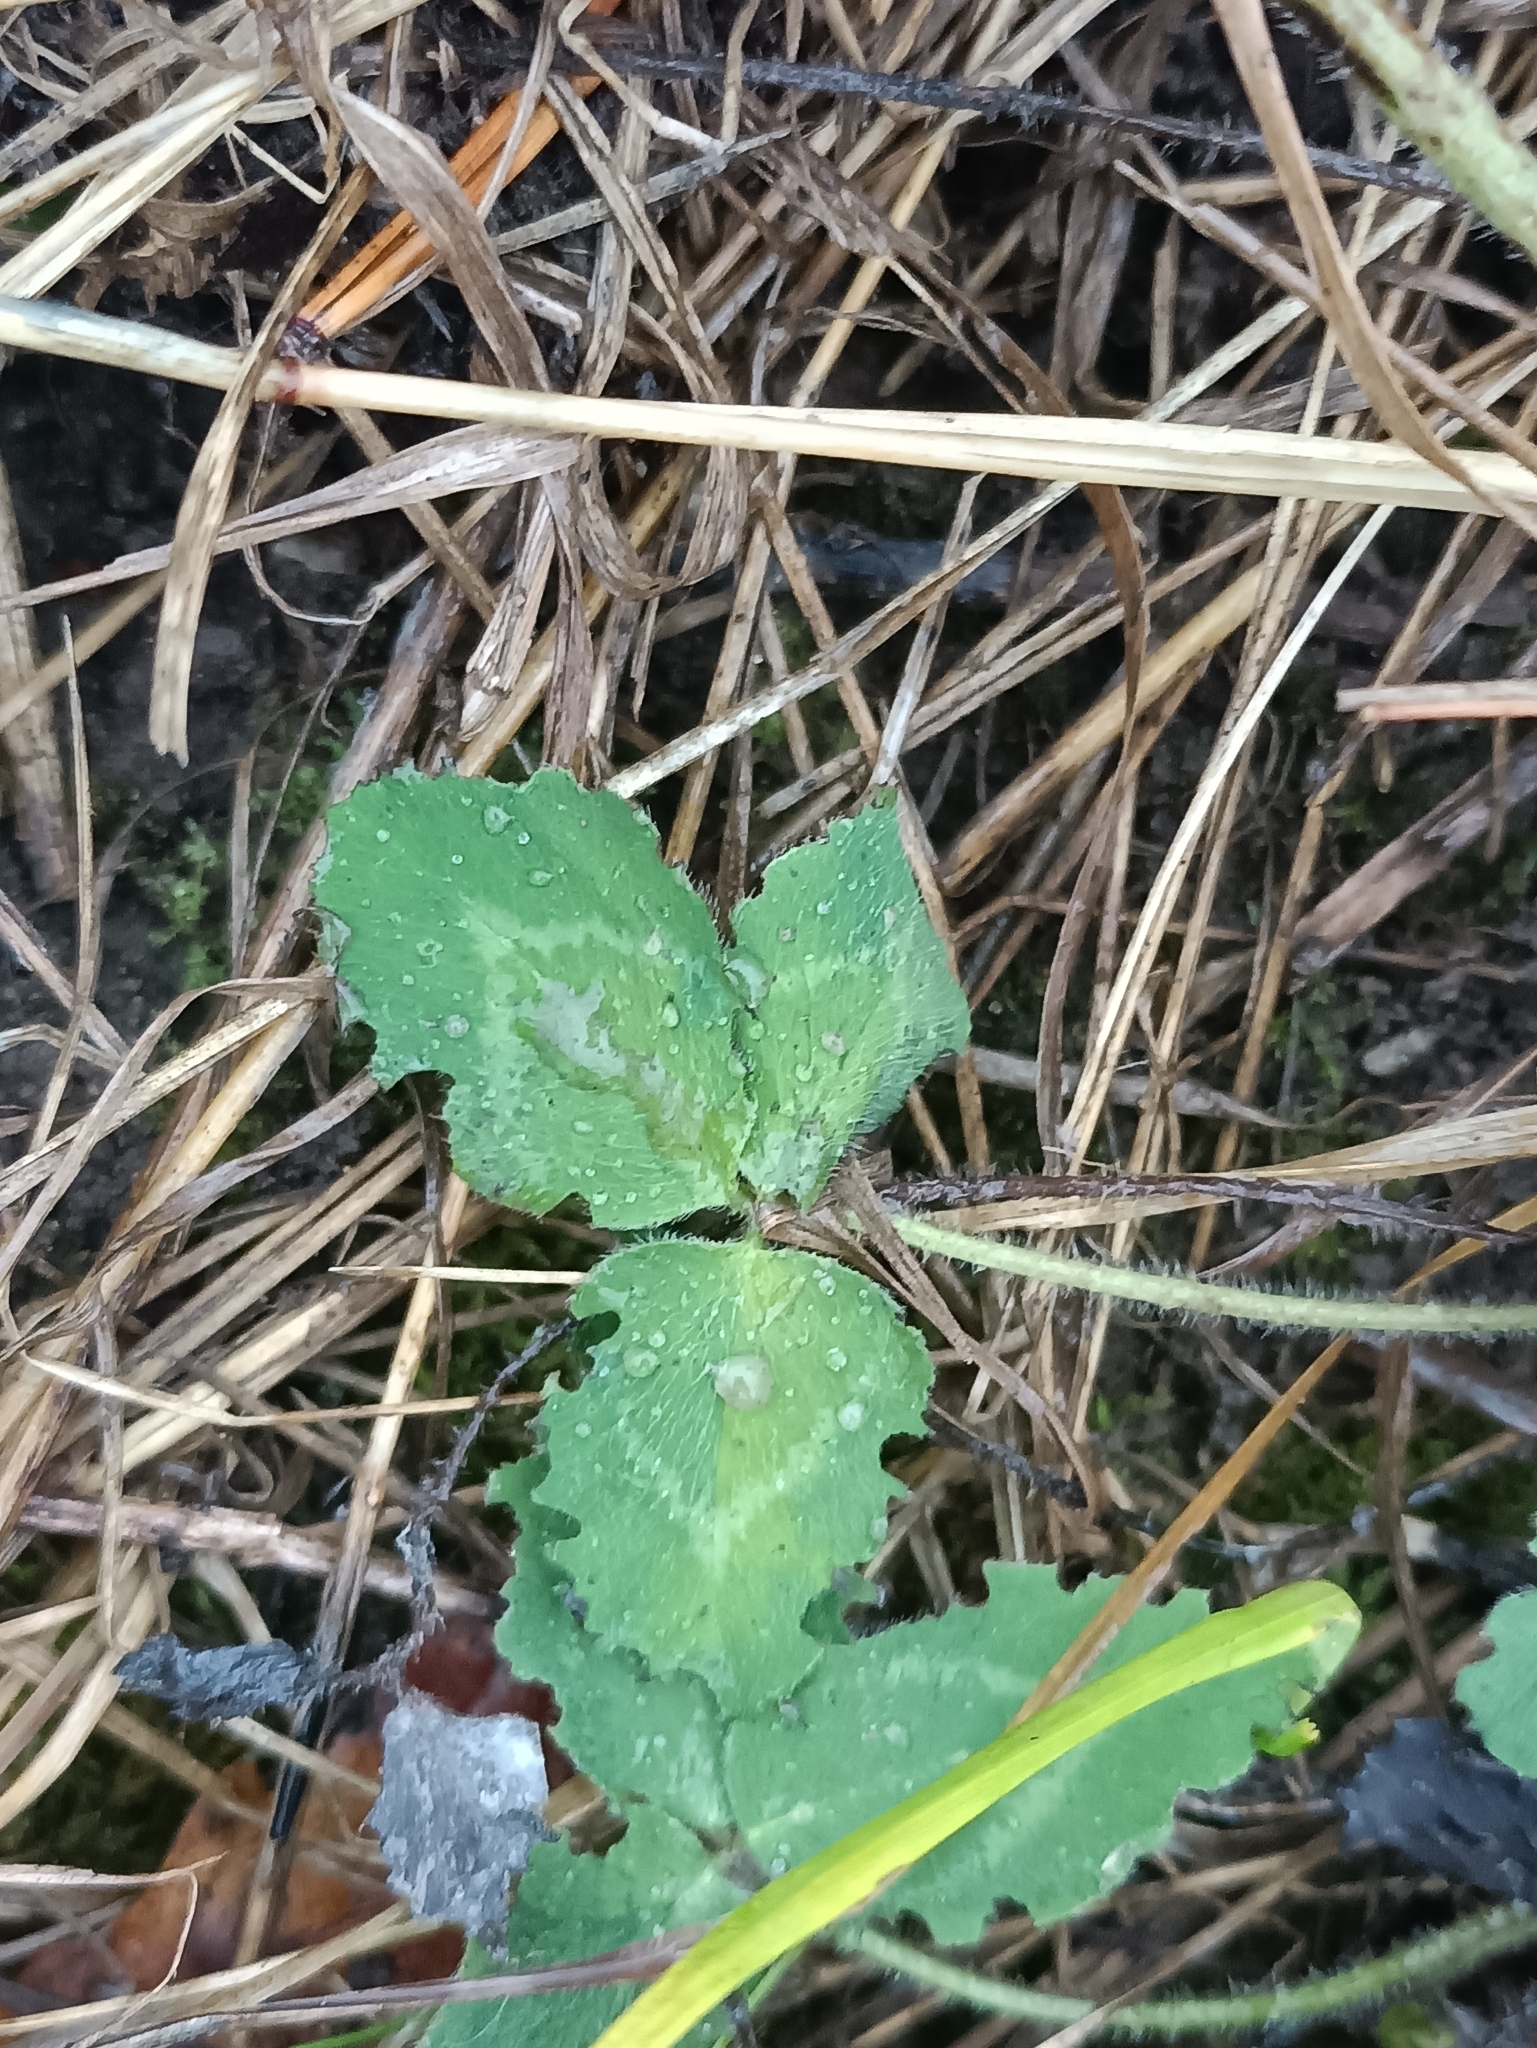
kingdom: Plantae
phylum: Tracheophyta
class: Magnoliopsida
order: Fabales
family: Fabaceae
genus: Trifolium
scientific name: Trifolium pratense
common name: Red clover
